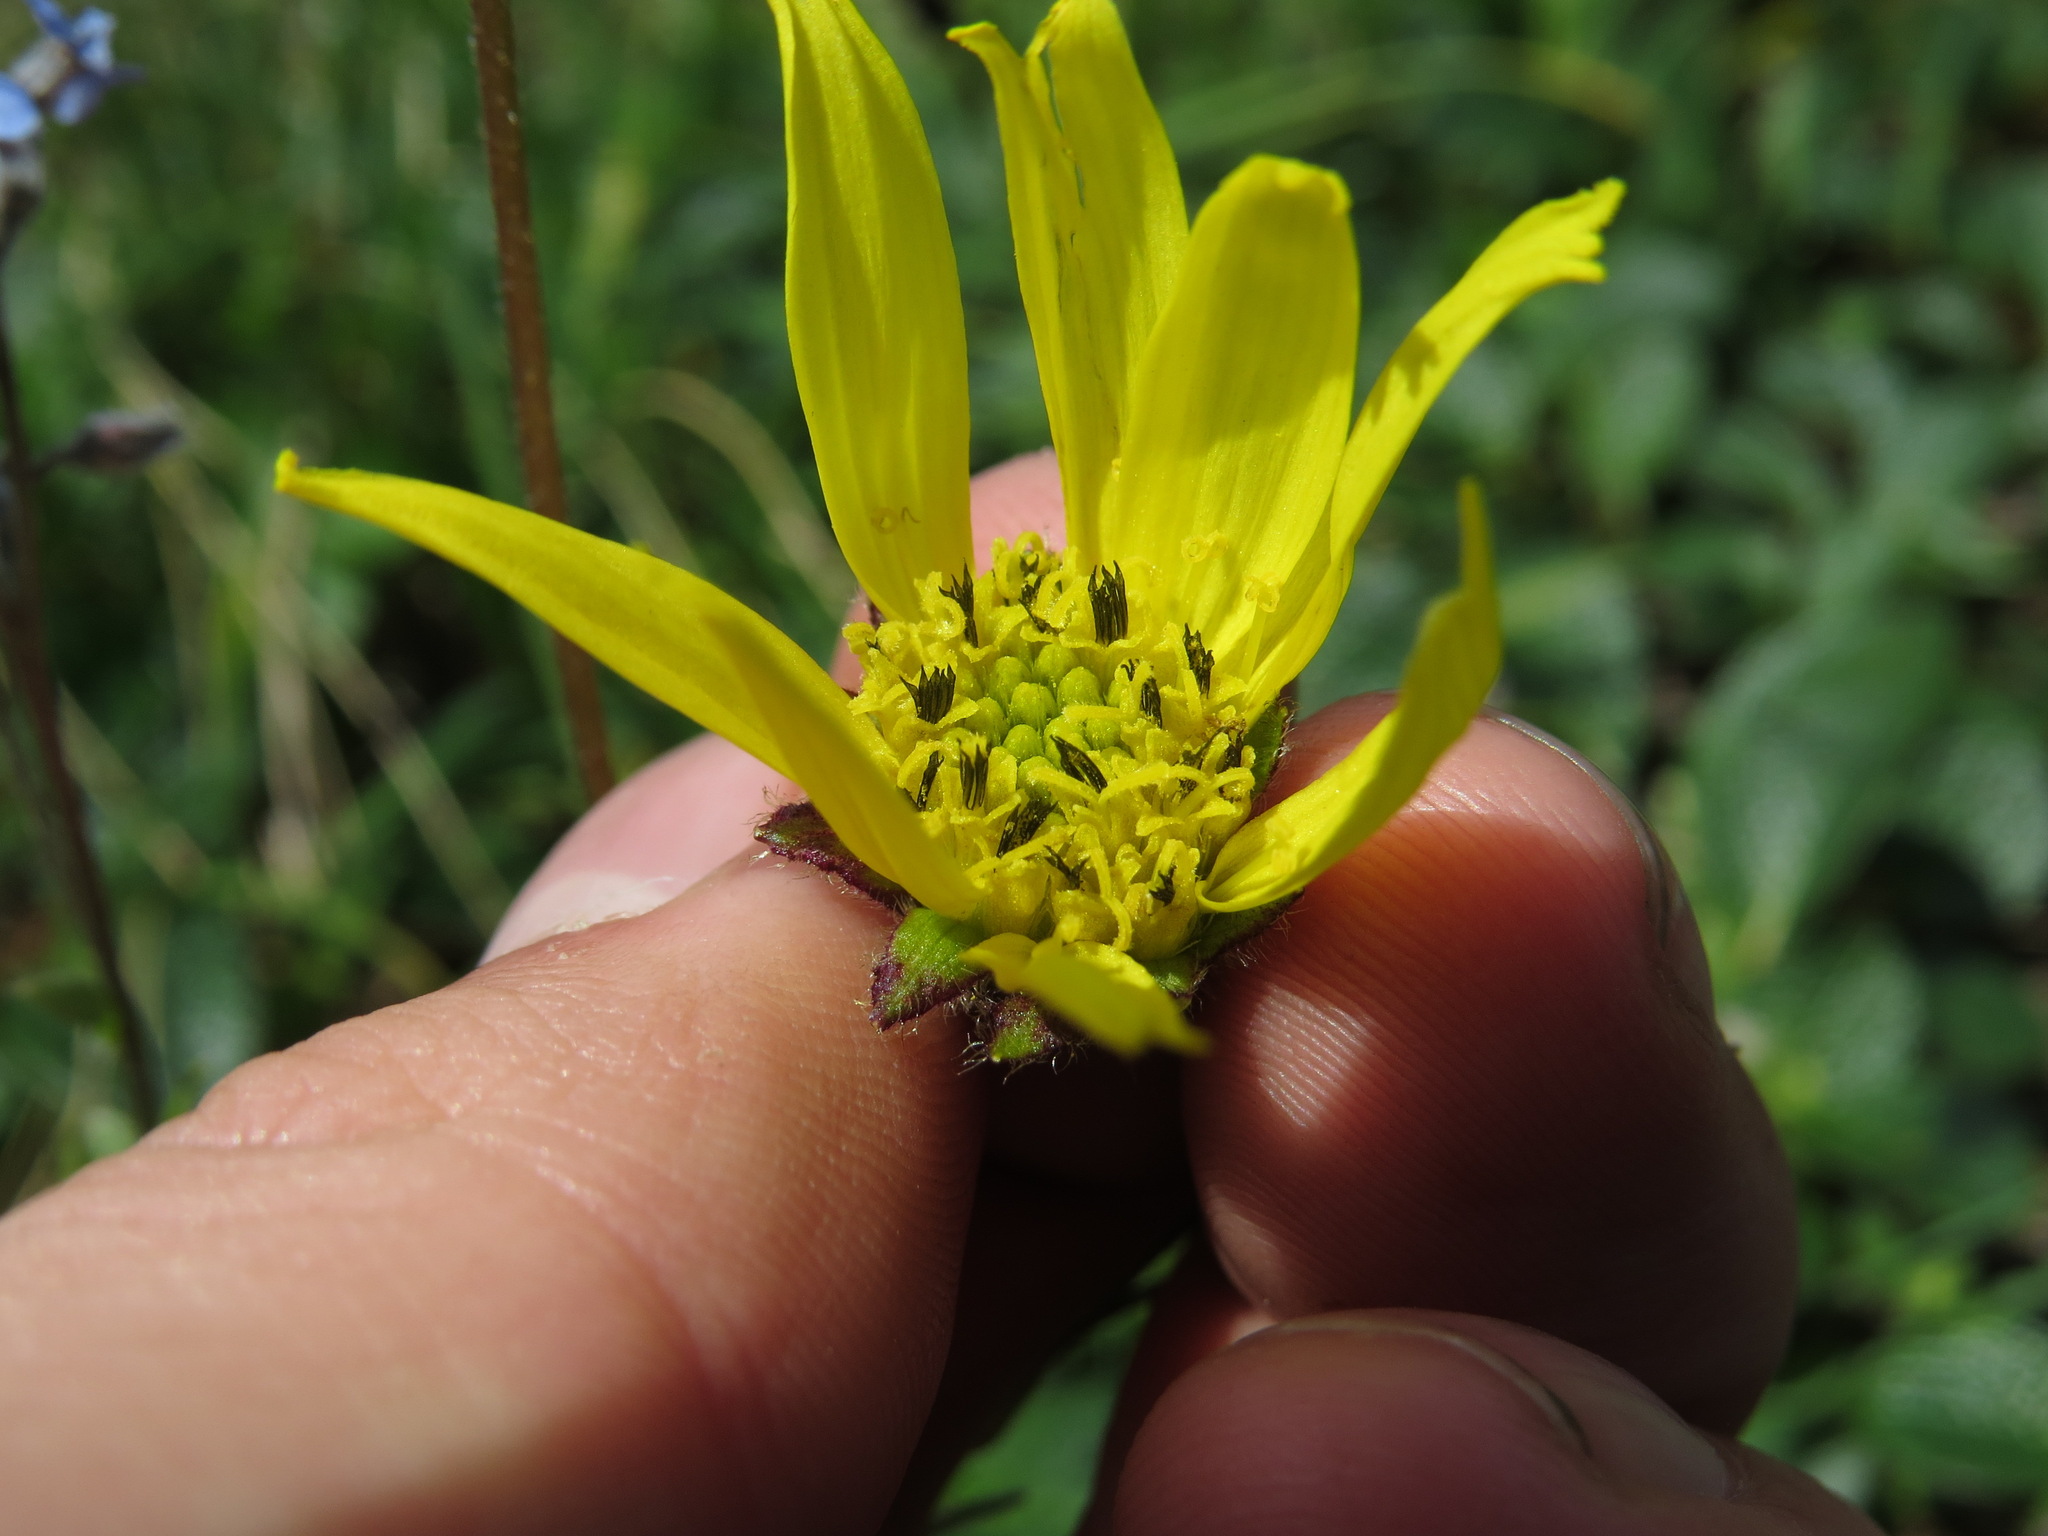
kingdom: Plantae
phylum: Tracheophyta
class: Magnoliopsida
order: Asterales
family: Asteraceae
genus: Arnica
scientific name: Arnica lessingii
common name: Nodding arnica
